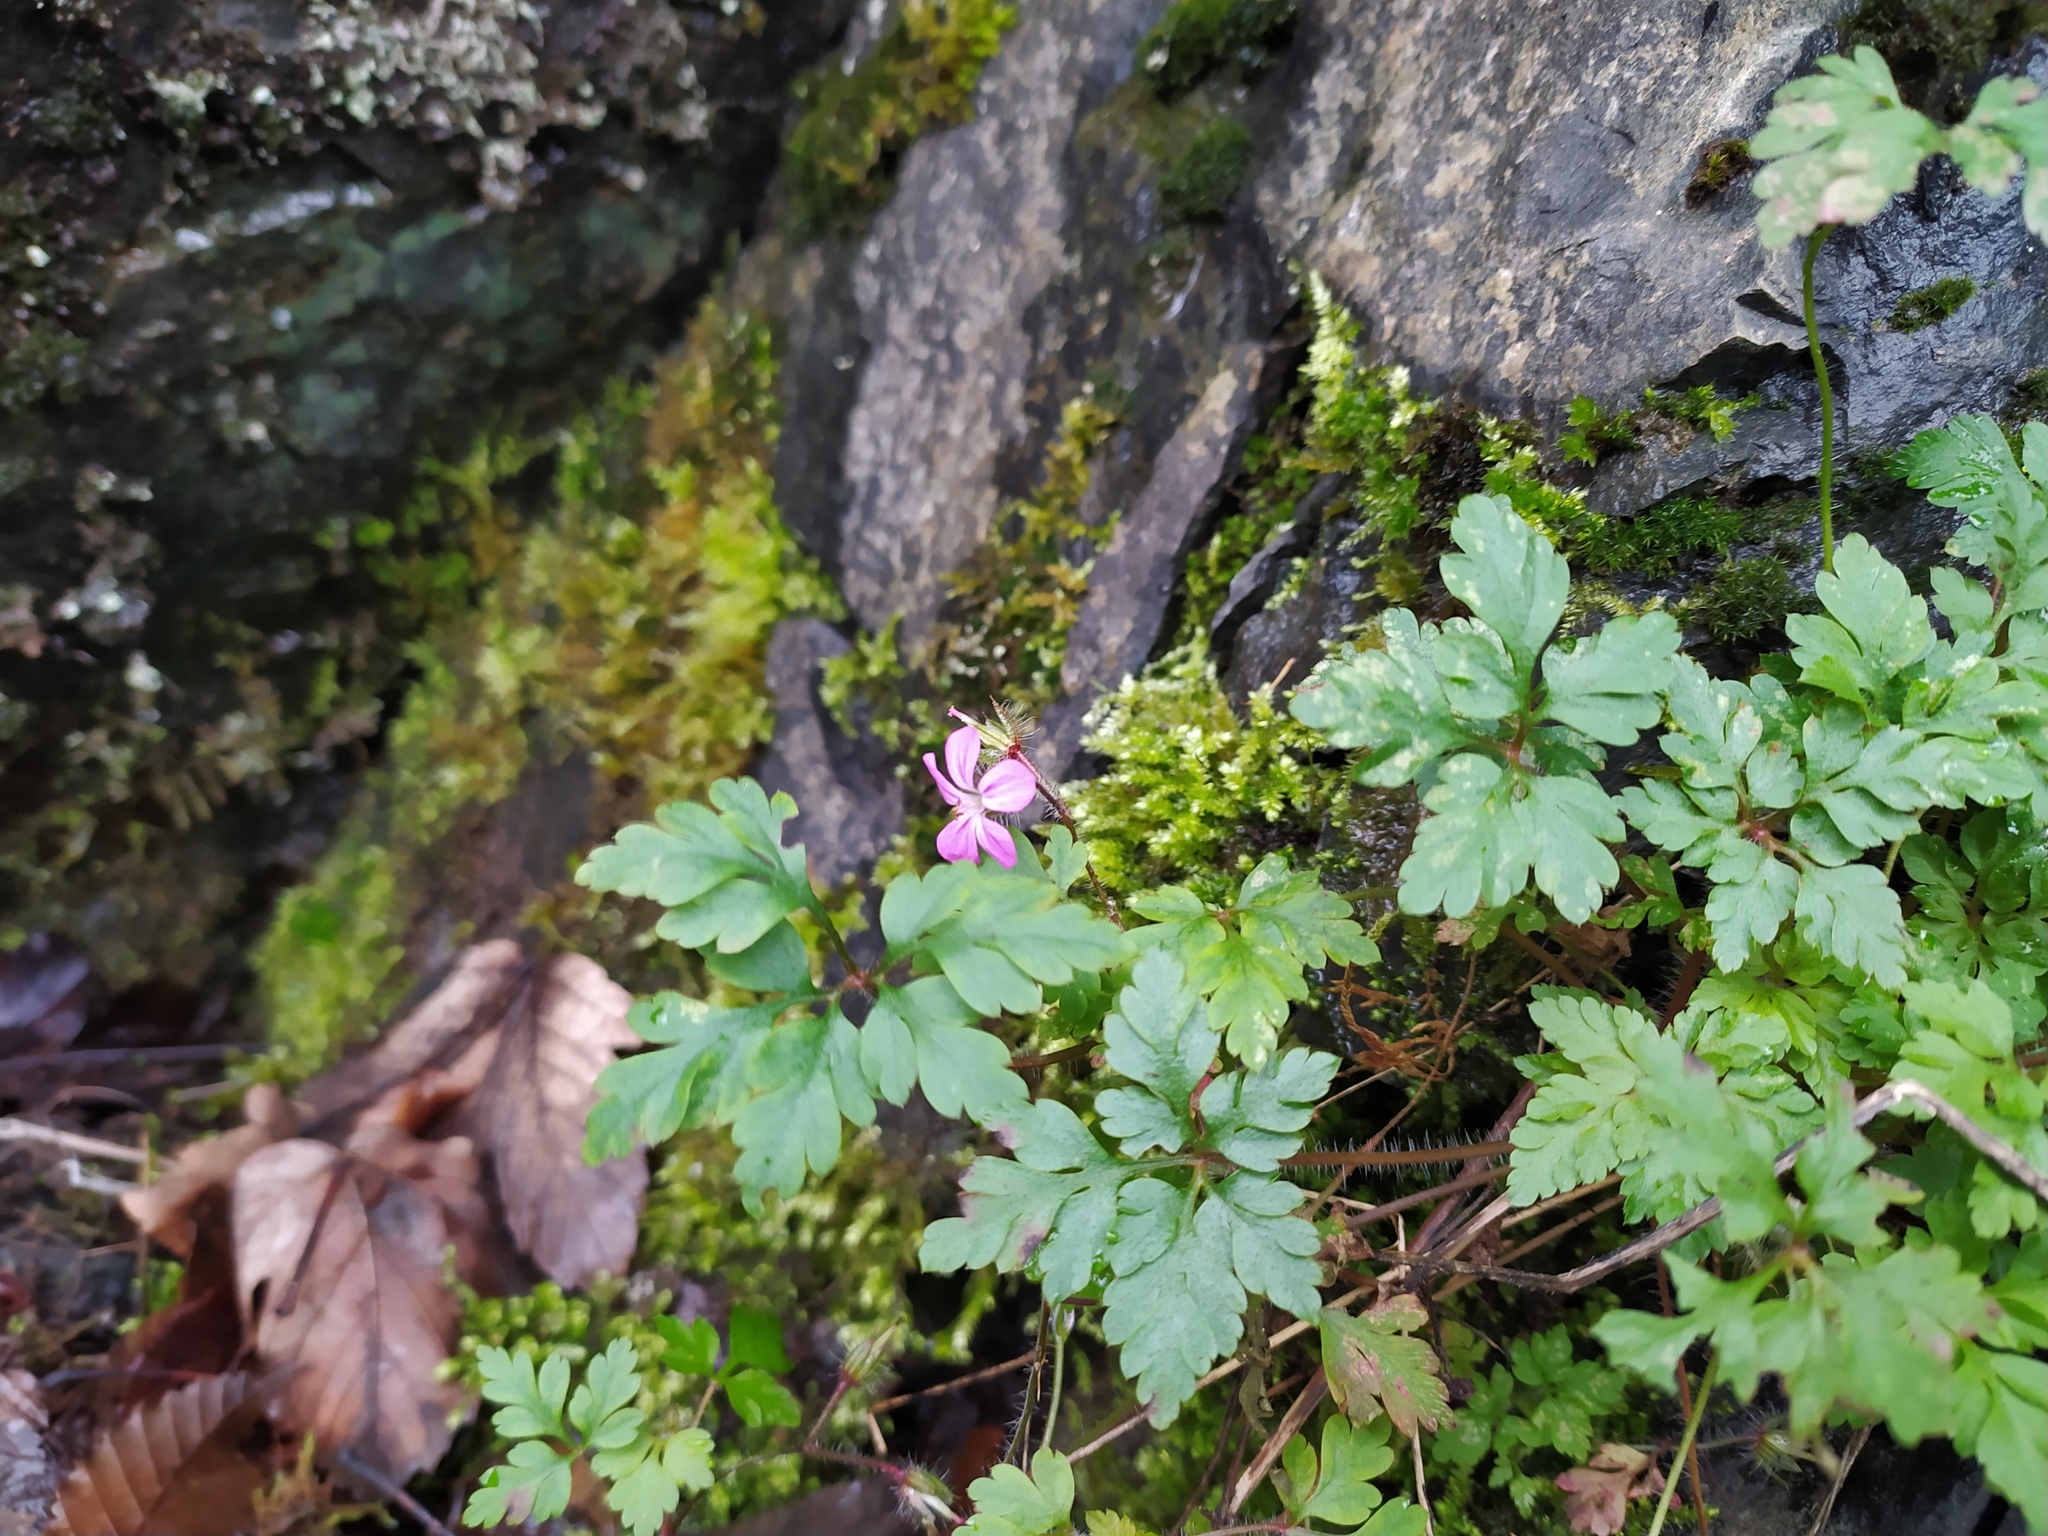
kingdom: Plantae
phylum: Tracheophyta
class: Magnoliopsida
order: Geraniales
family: Geraniaceae
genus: Geranium
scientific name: Geranium robertianum
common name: Herb-robert
